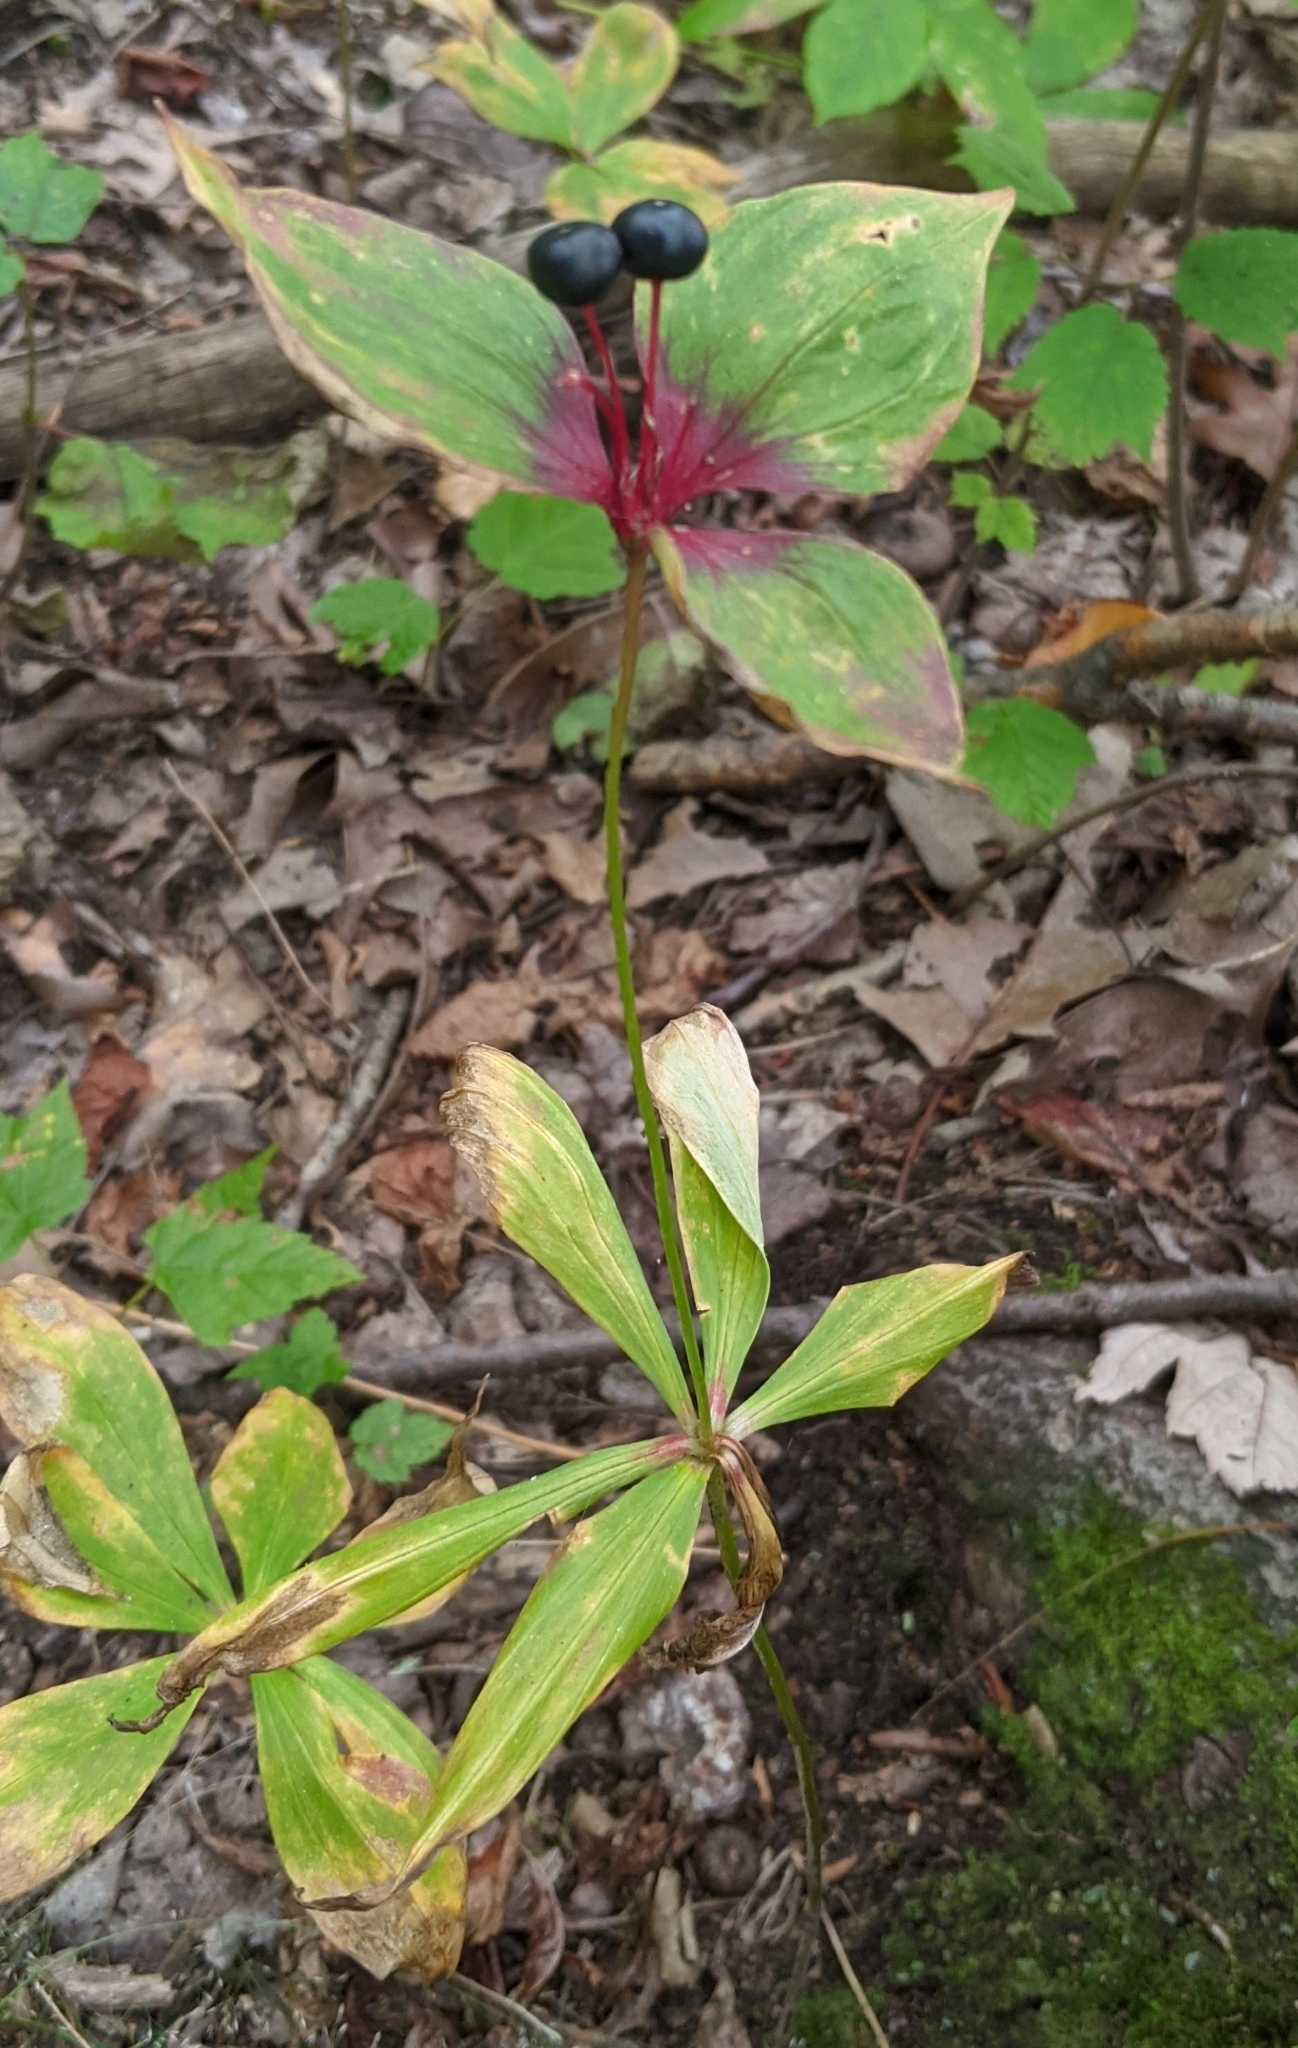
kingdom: Plantae
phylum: Tracheophyta
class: Liliopsida
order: Liliales
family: Liliaceae
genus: Medeola
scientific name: Medeola virginiana
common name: Indian cucumber-root
